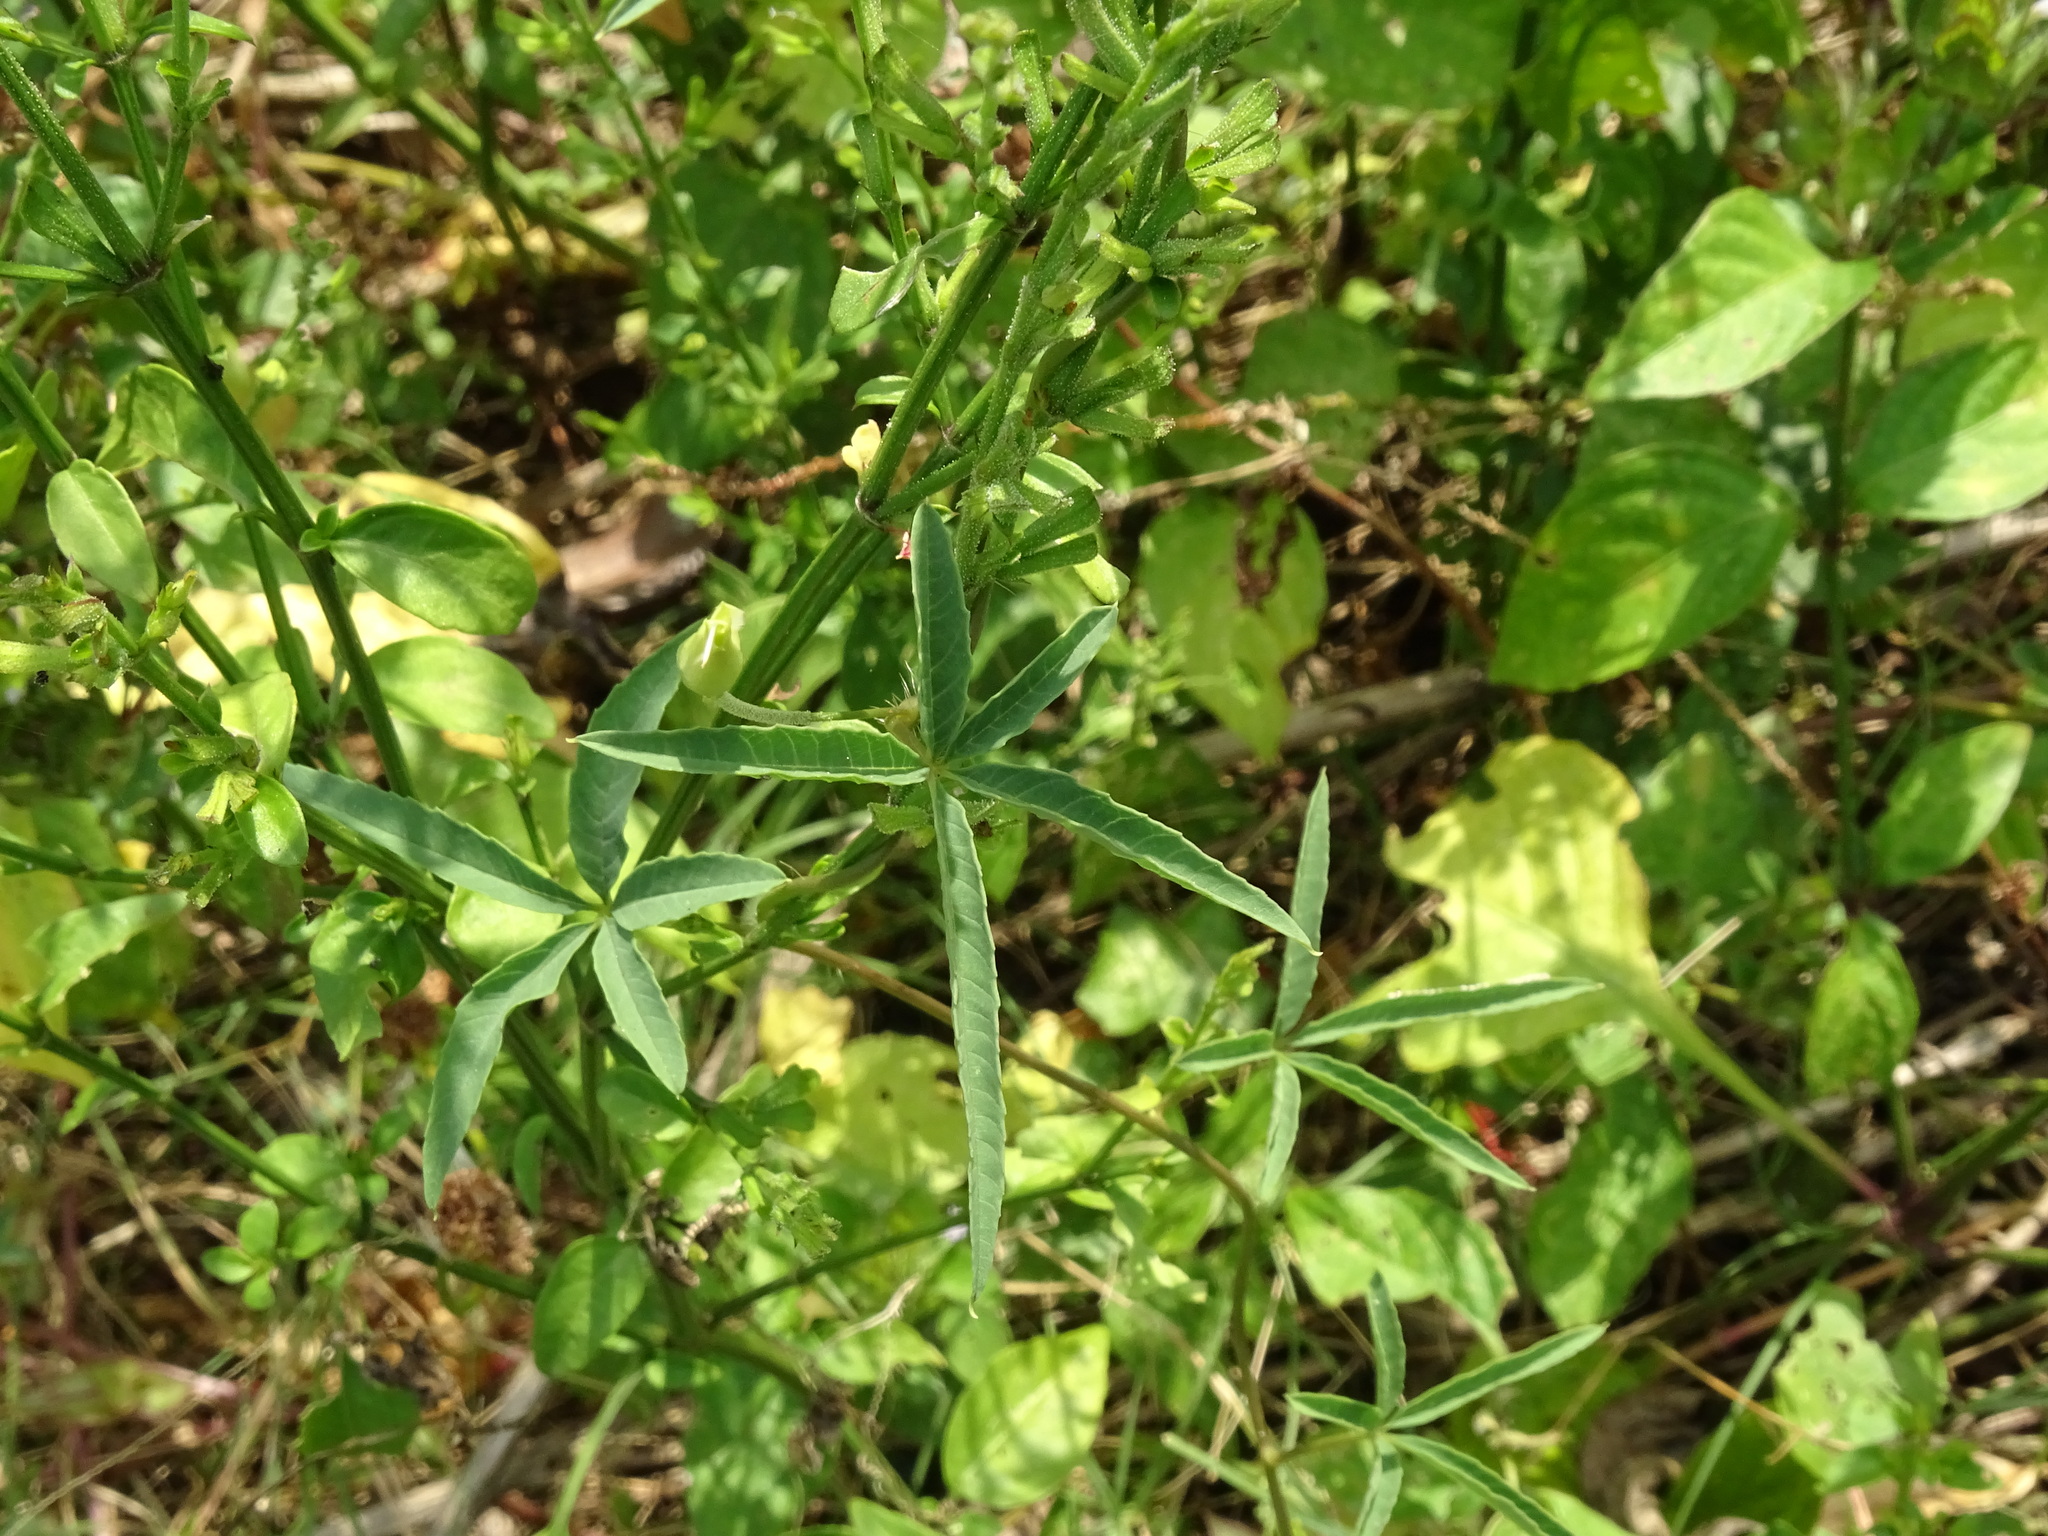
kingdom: Plantae
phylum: Tracheophyta
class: Magnoliopsida
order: Solanales
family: Convolvulaceae
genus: Distimake
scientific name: Distimake quinquefolius
